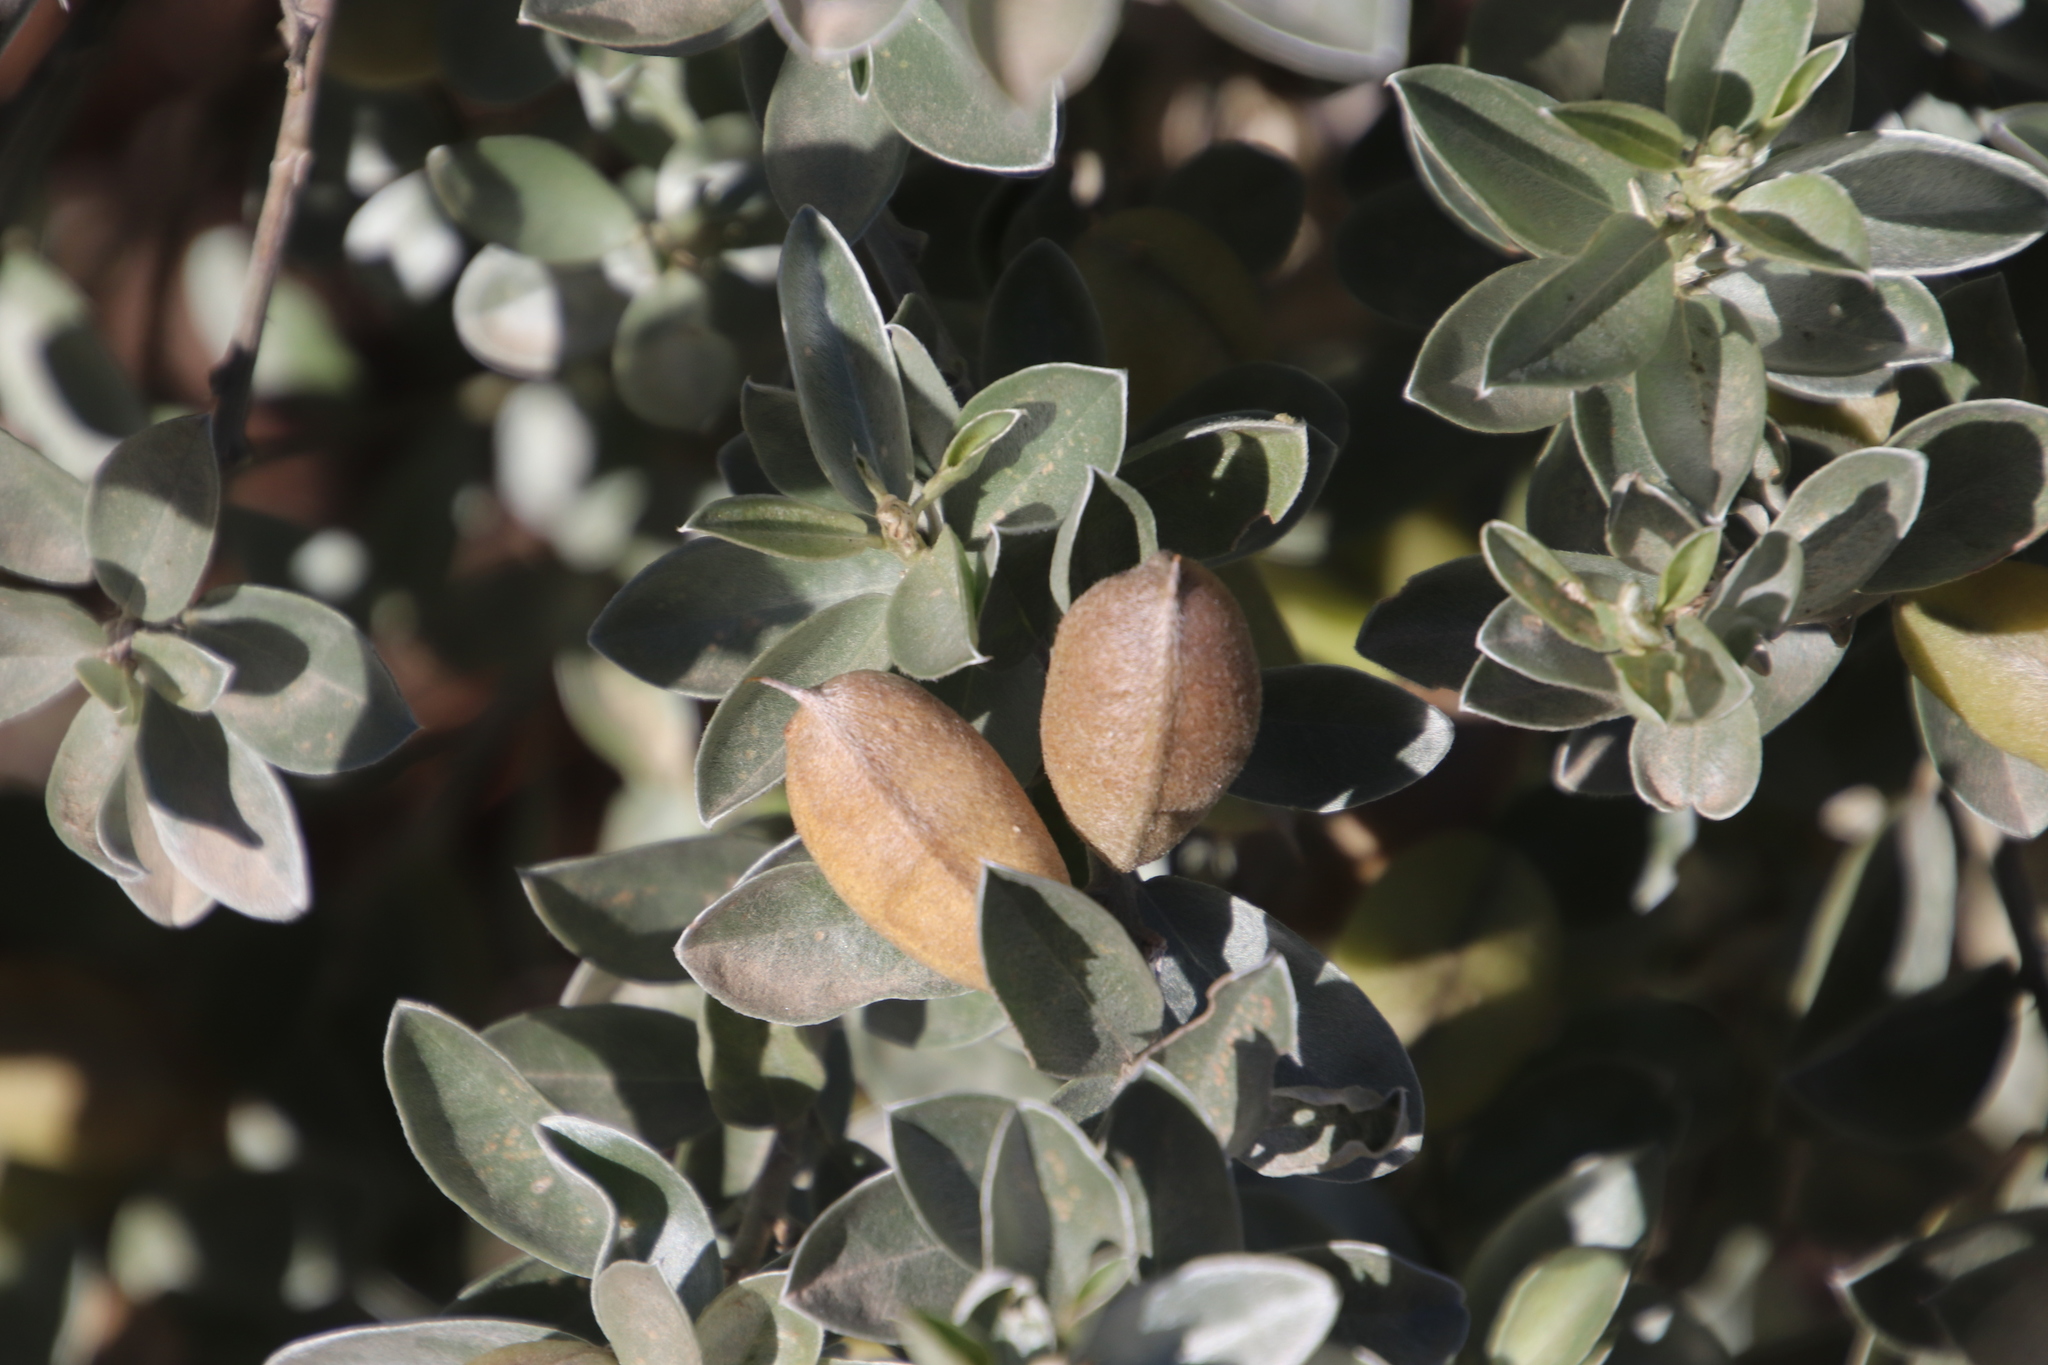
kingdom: Plantae
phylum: Tracheophyta
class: Magnoliopsida
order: Fabales
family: Fabaceae
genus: Podalyria
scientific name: Podalyria sericea
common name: Silver podalyria
